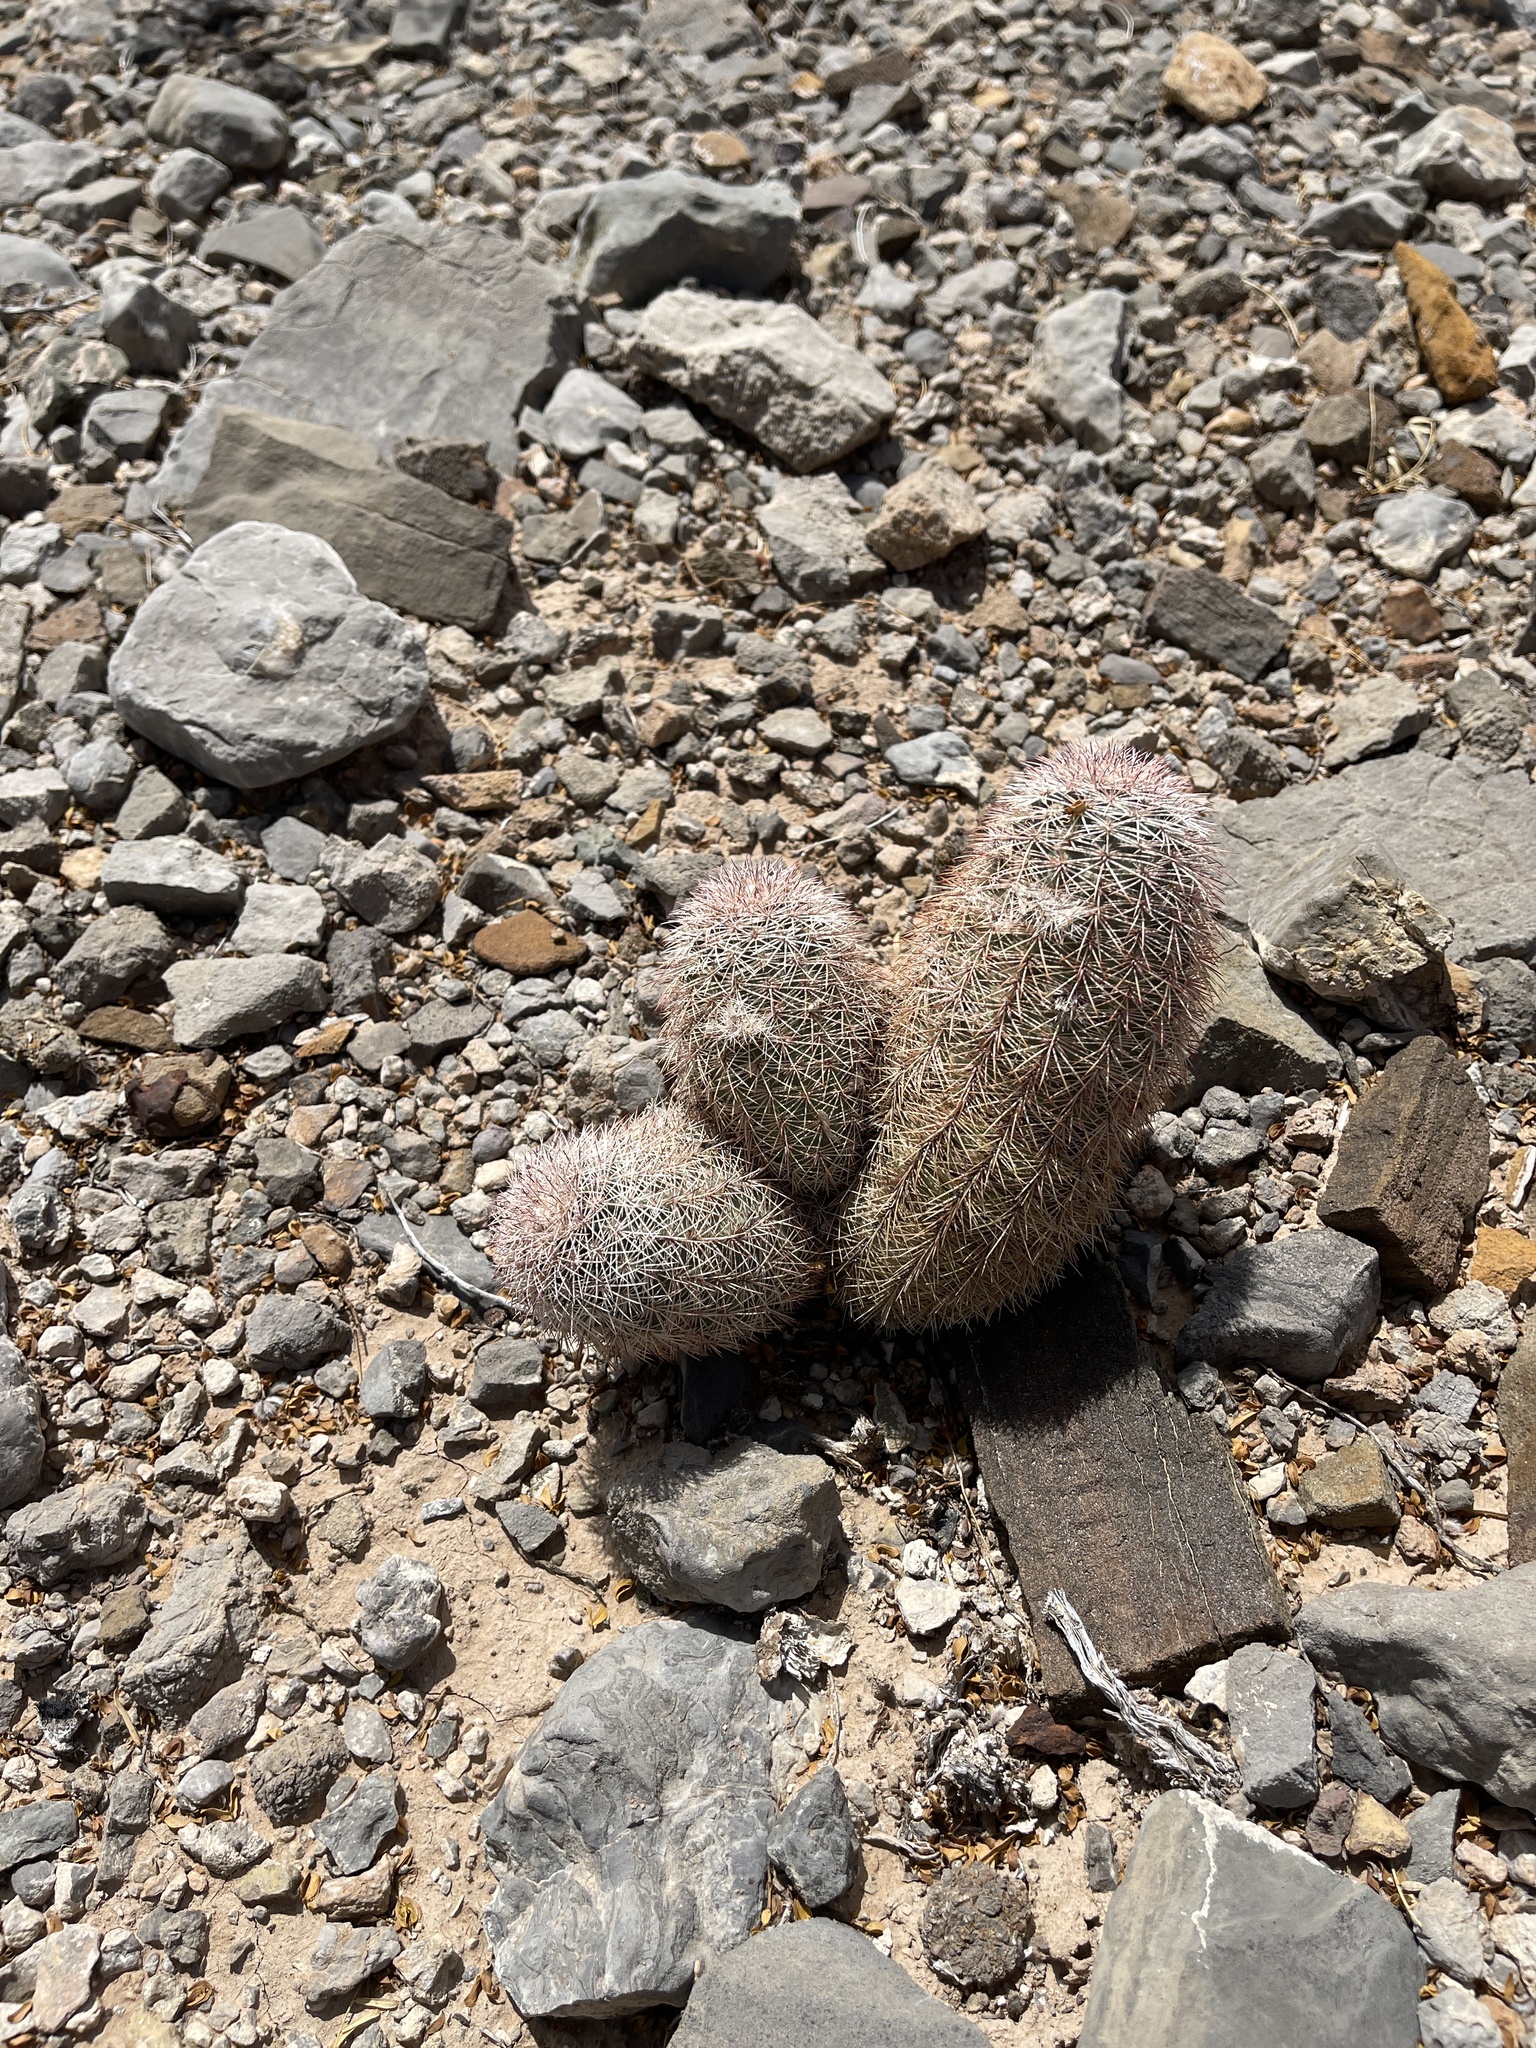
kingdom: Plantae
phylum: Tracheophyta
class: Magnoliopsida
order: Caryophyllales
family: Cactaceae
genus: Echinocereus
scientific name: Echinocereus dasyacanthus
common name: Spiny hedgehog cactus
